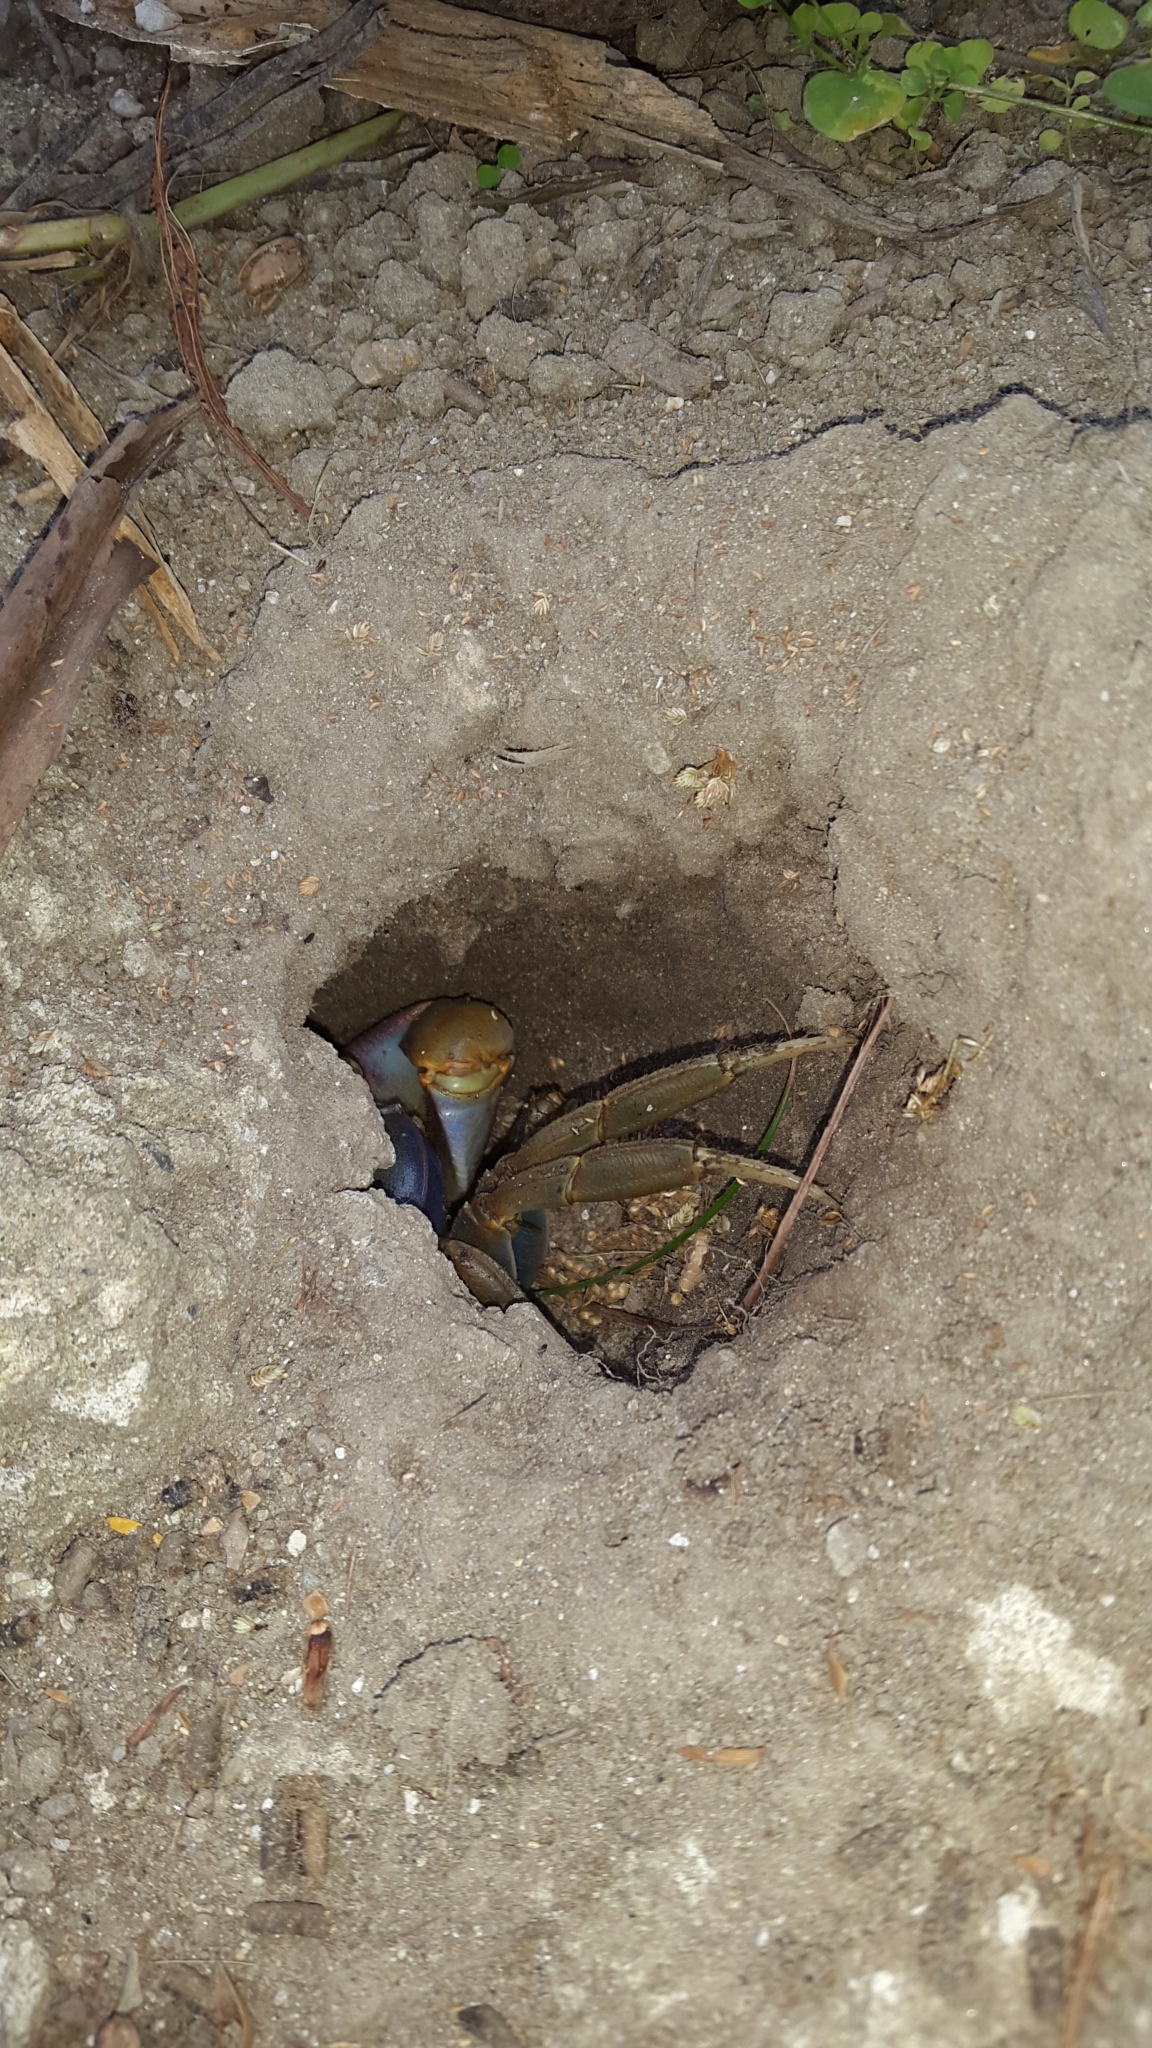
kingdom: Animalia
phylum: Arthropoda
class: Malacostraca
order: Decapoda
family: Gecarcinidae
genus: Cardisoma
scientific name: Cardisoma guanhumi
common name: Great land crab
